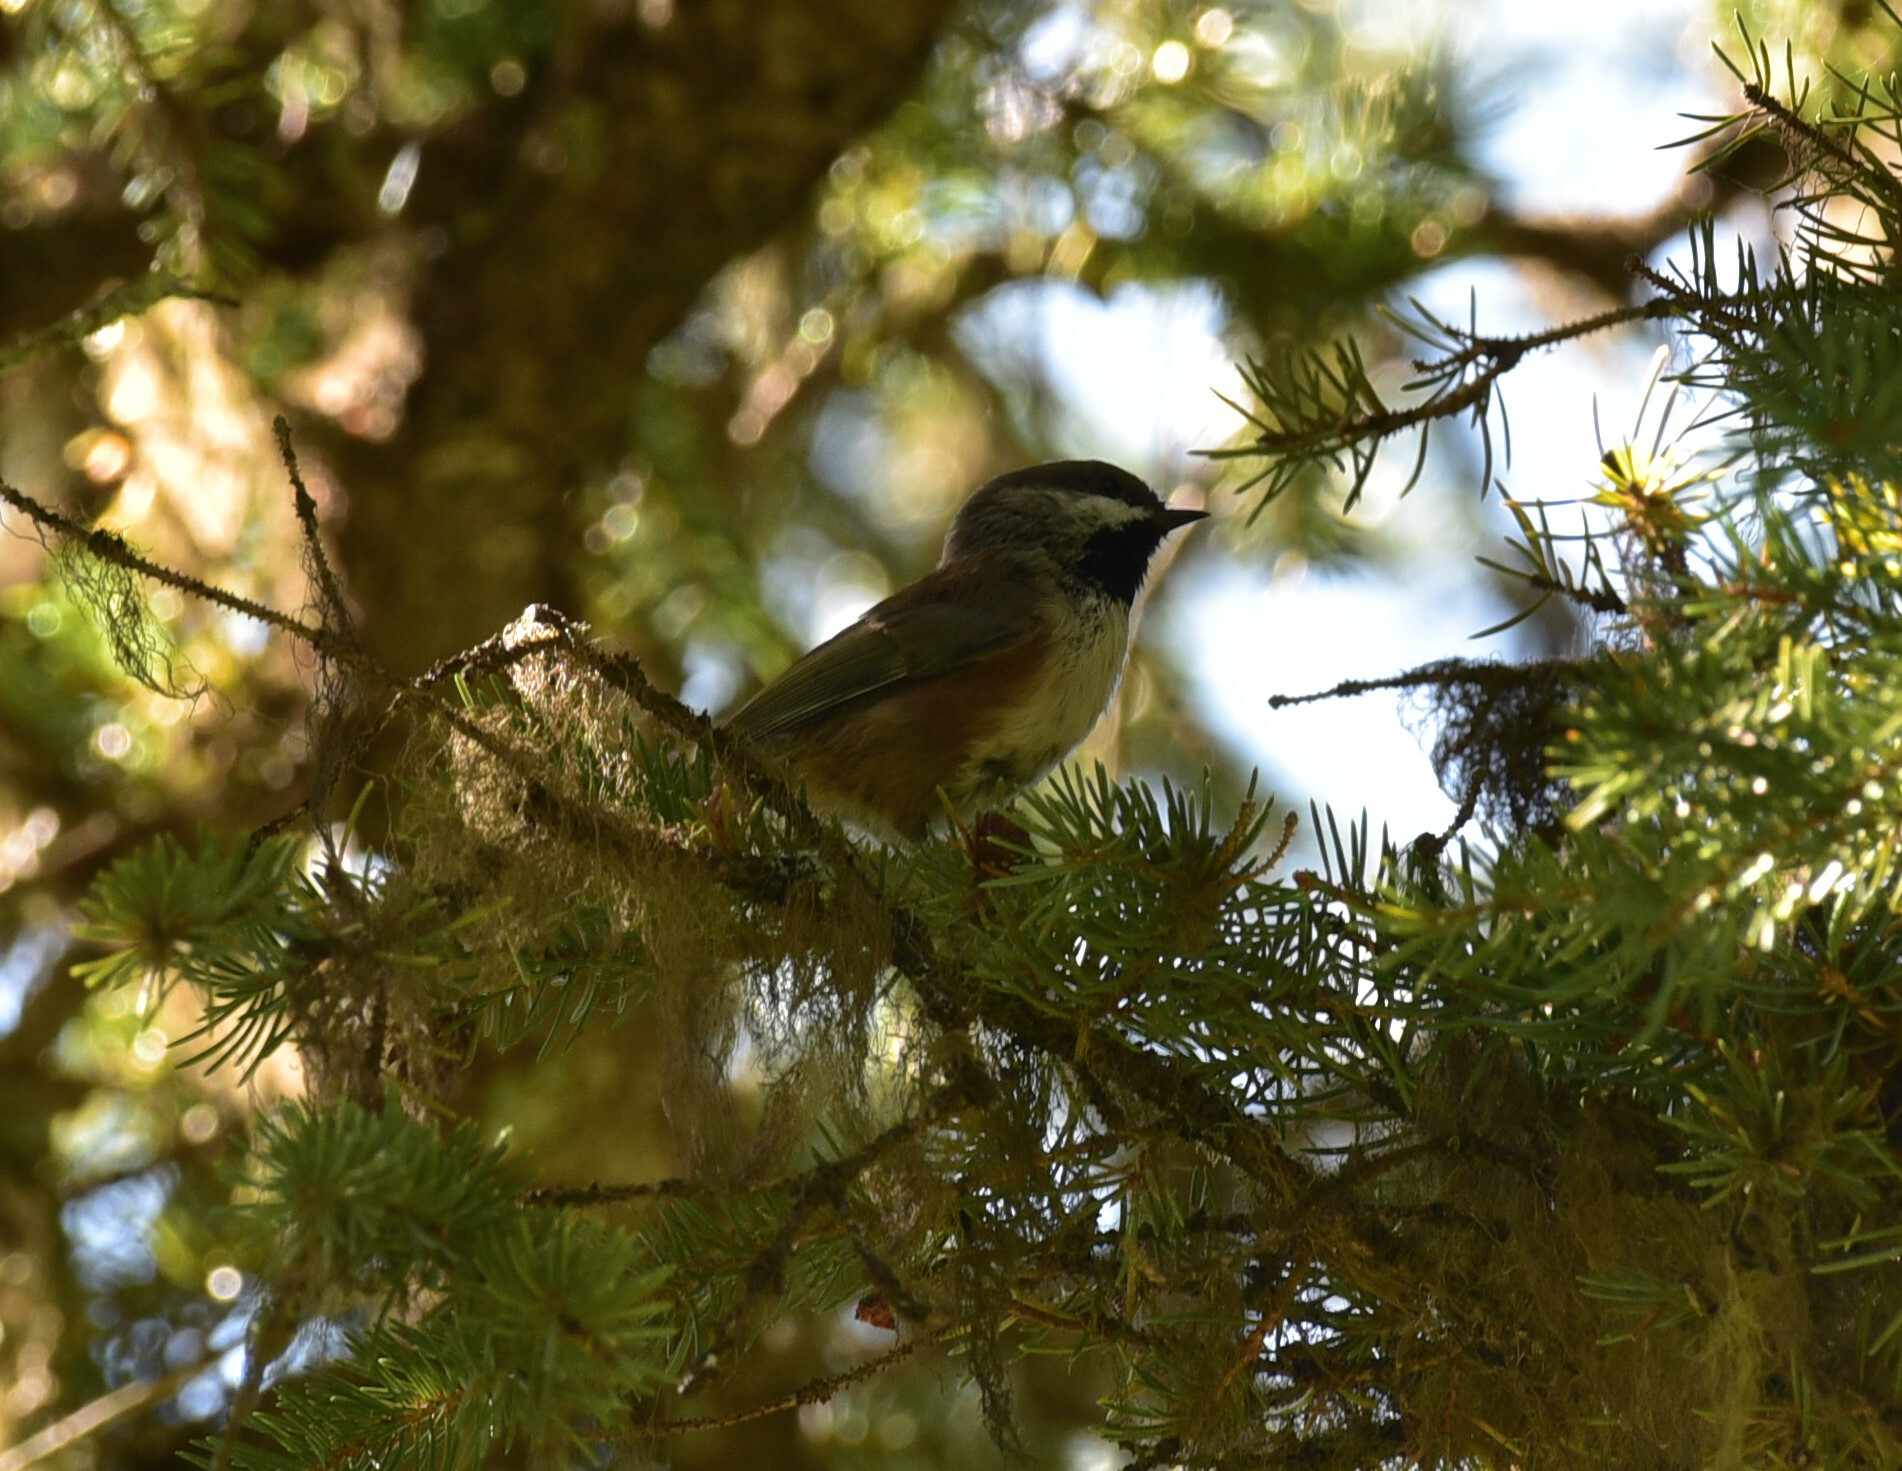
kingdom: Animalia
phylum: Chordata
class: Aves
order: Passeriformes
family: Paridae
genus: Poecile
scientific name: Poecile hudsonicus
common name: Boreal chickadee
